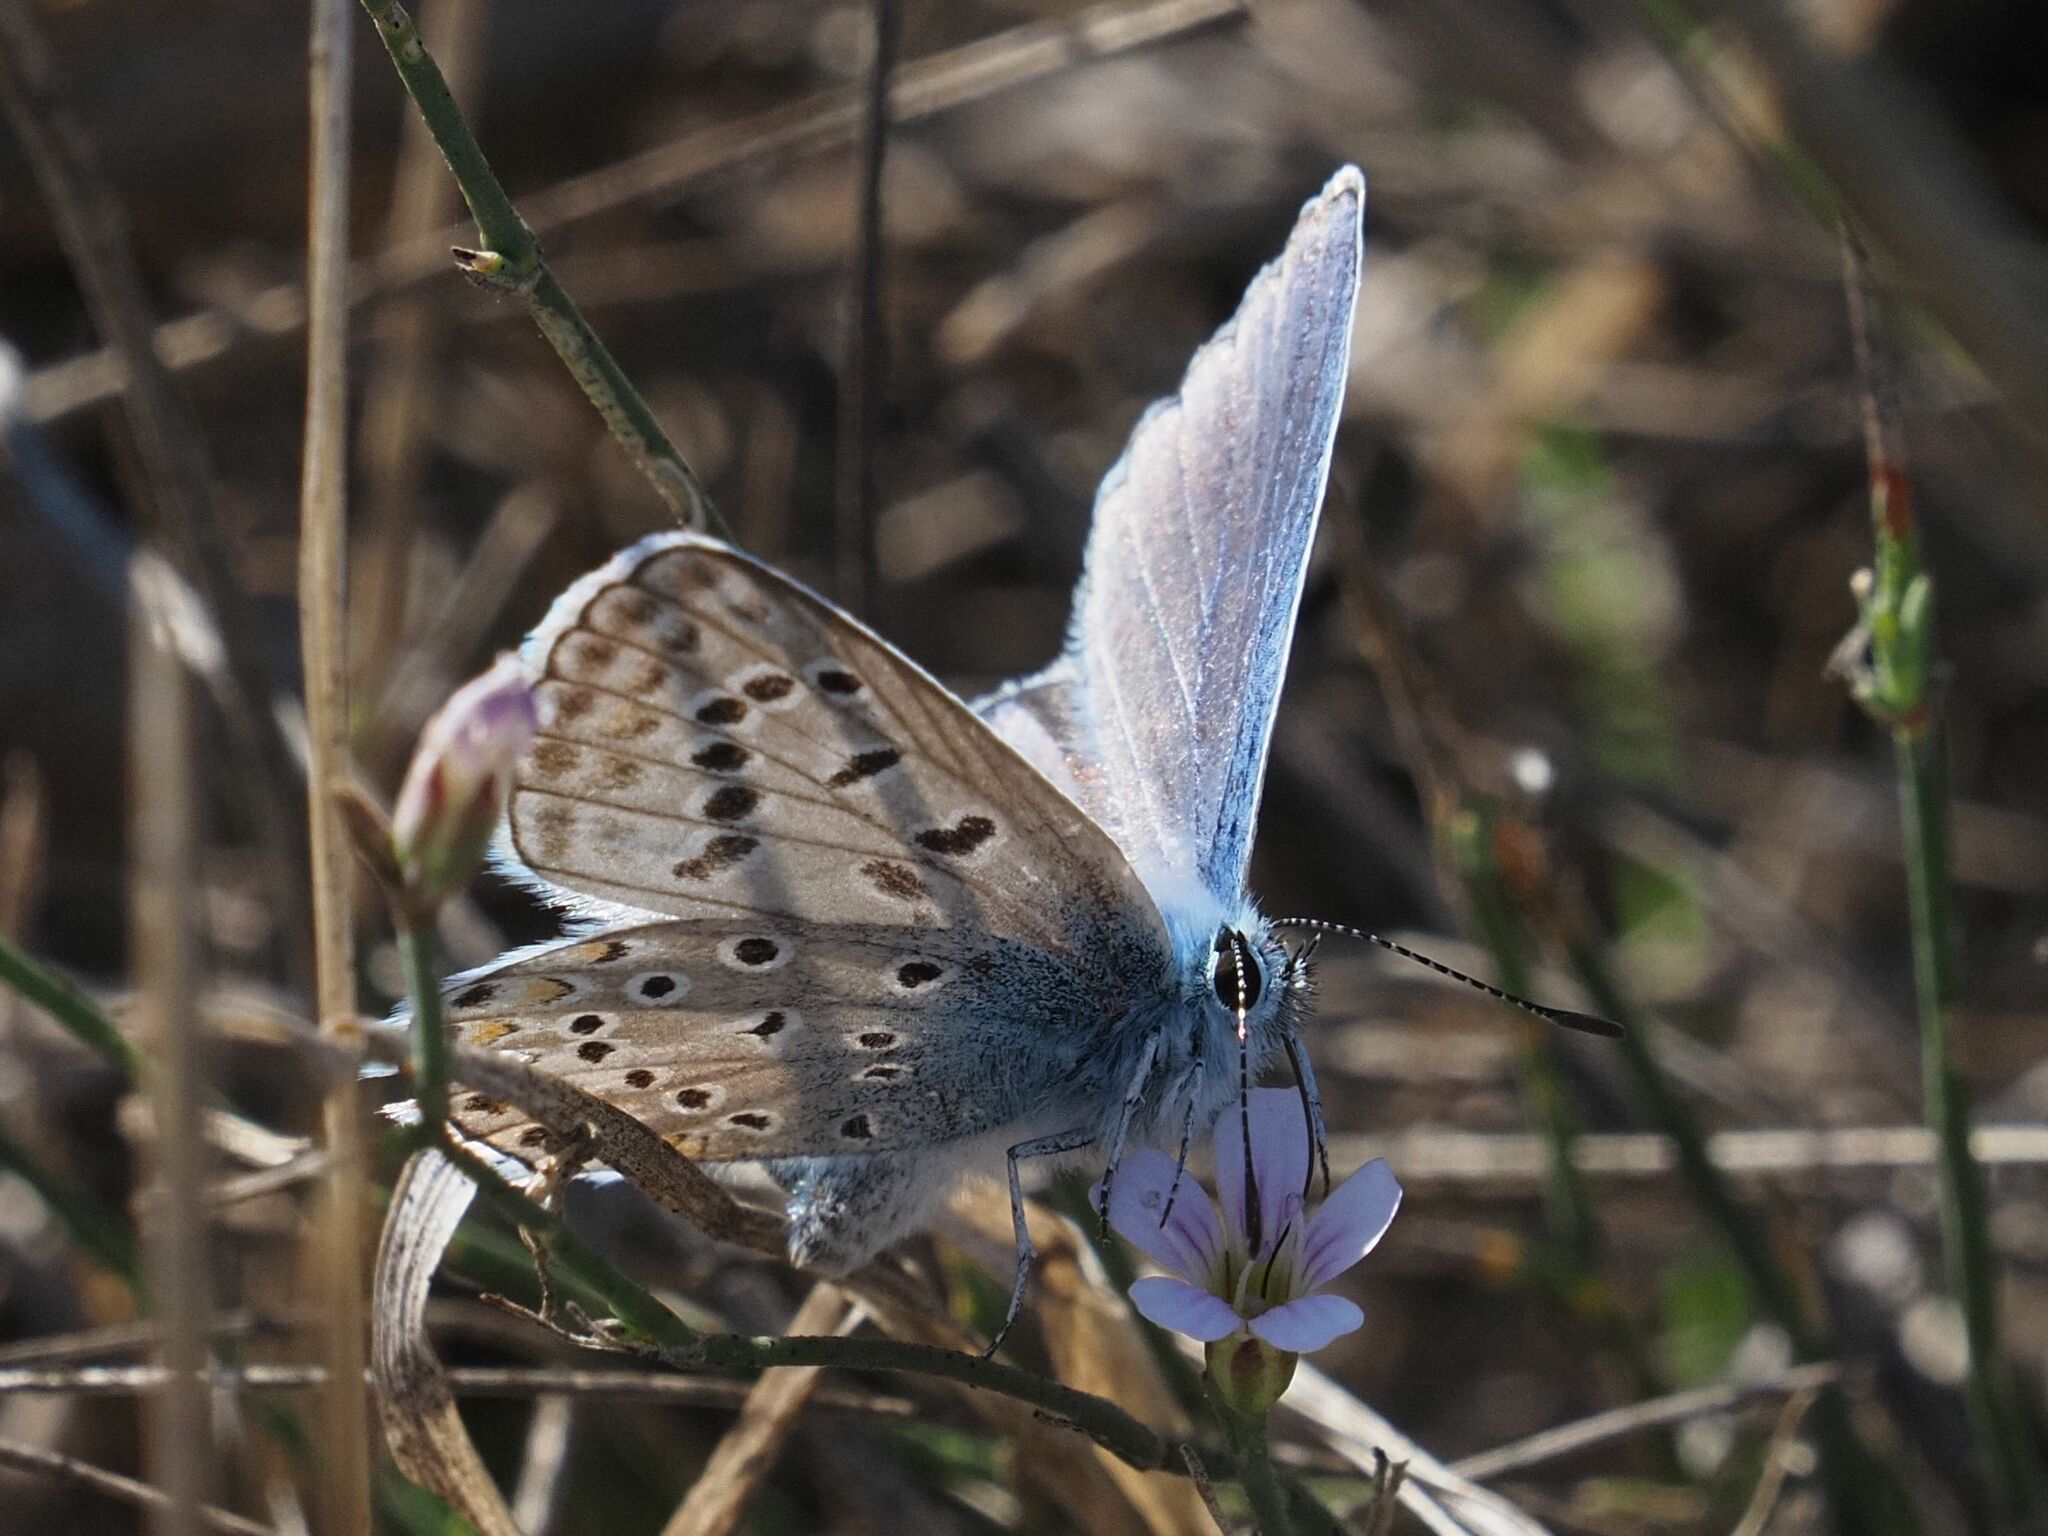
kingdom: Animalia
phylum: Arthropoda
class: Insecta
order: Lepidoptera
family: Lycaenidae
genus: Polyommatus
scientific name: Polyommatus icarus
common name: Common blue
